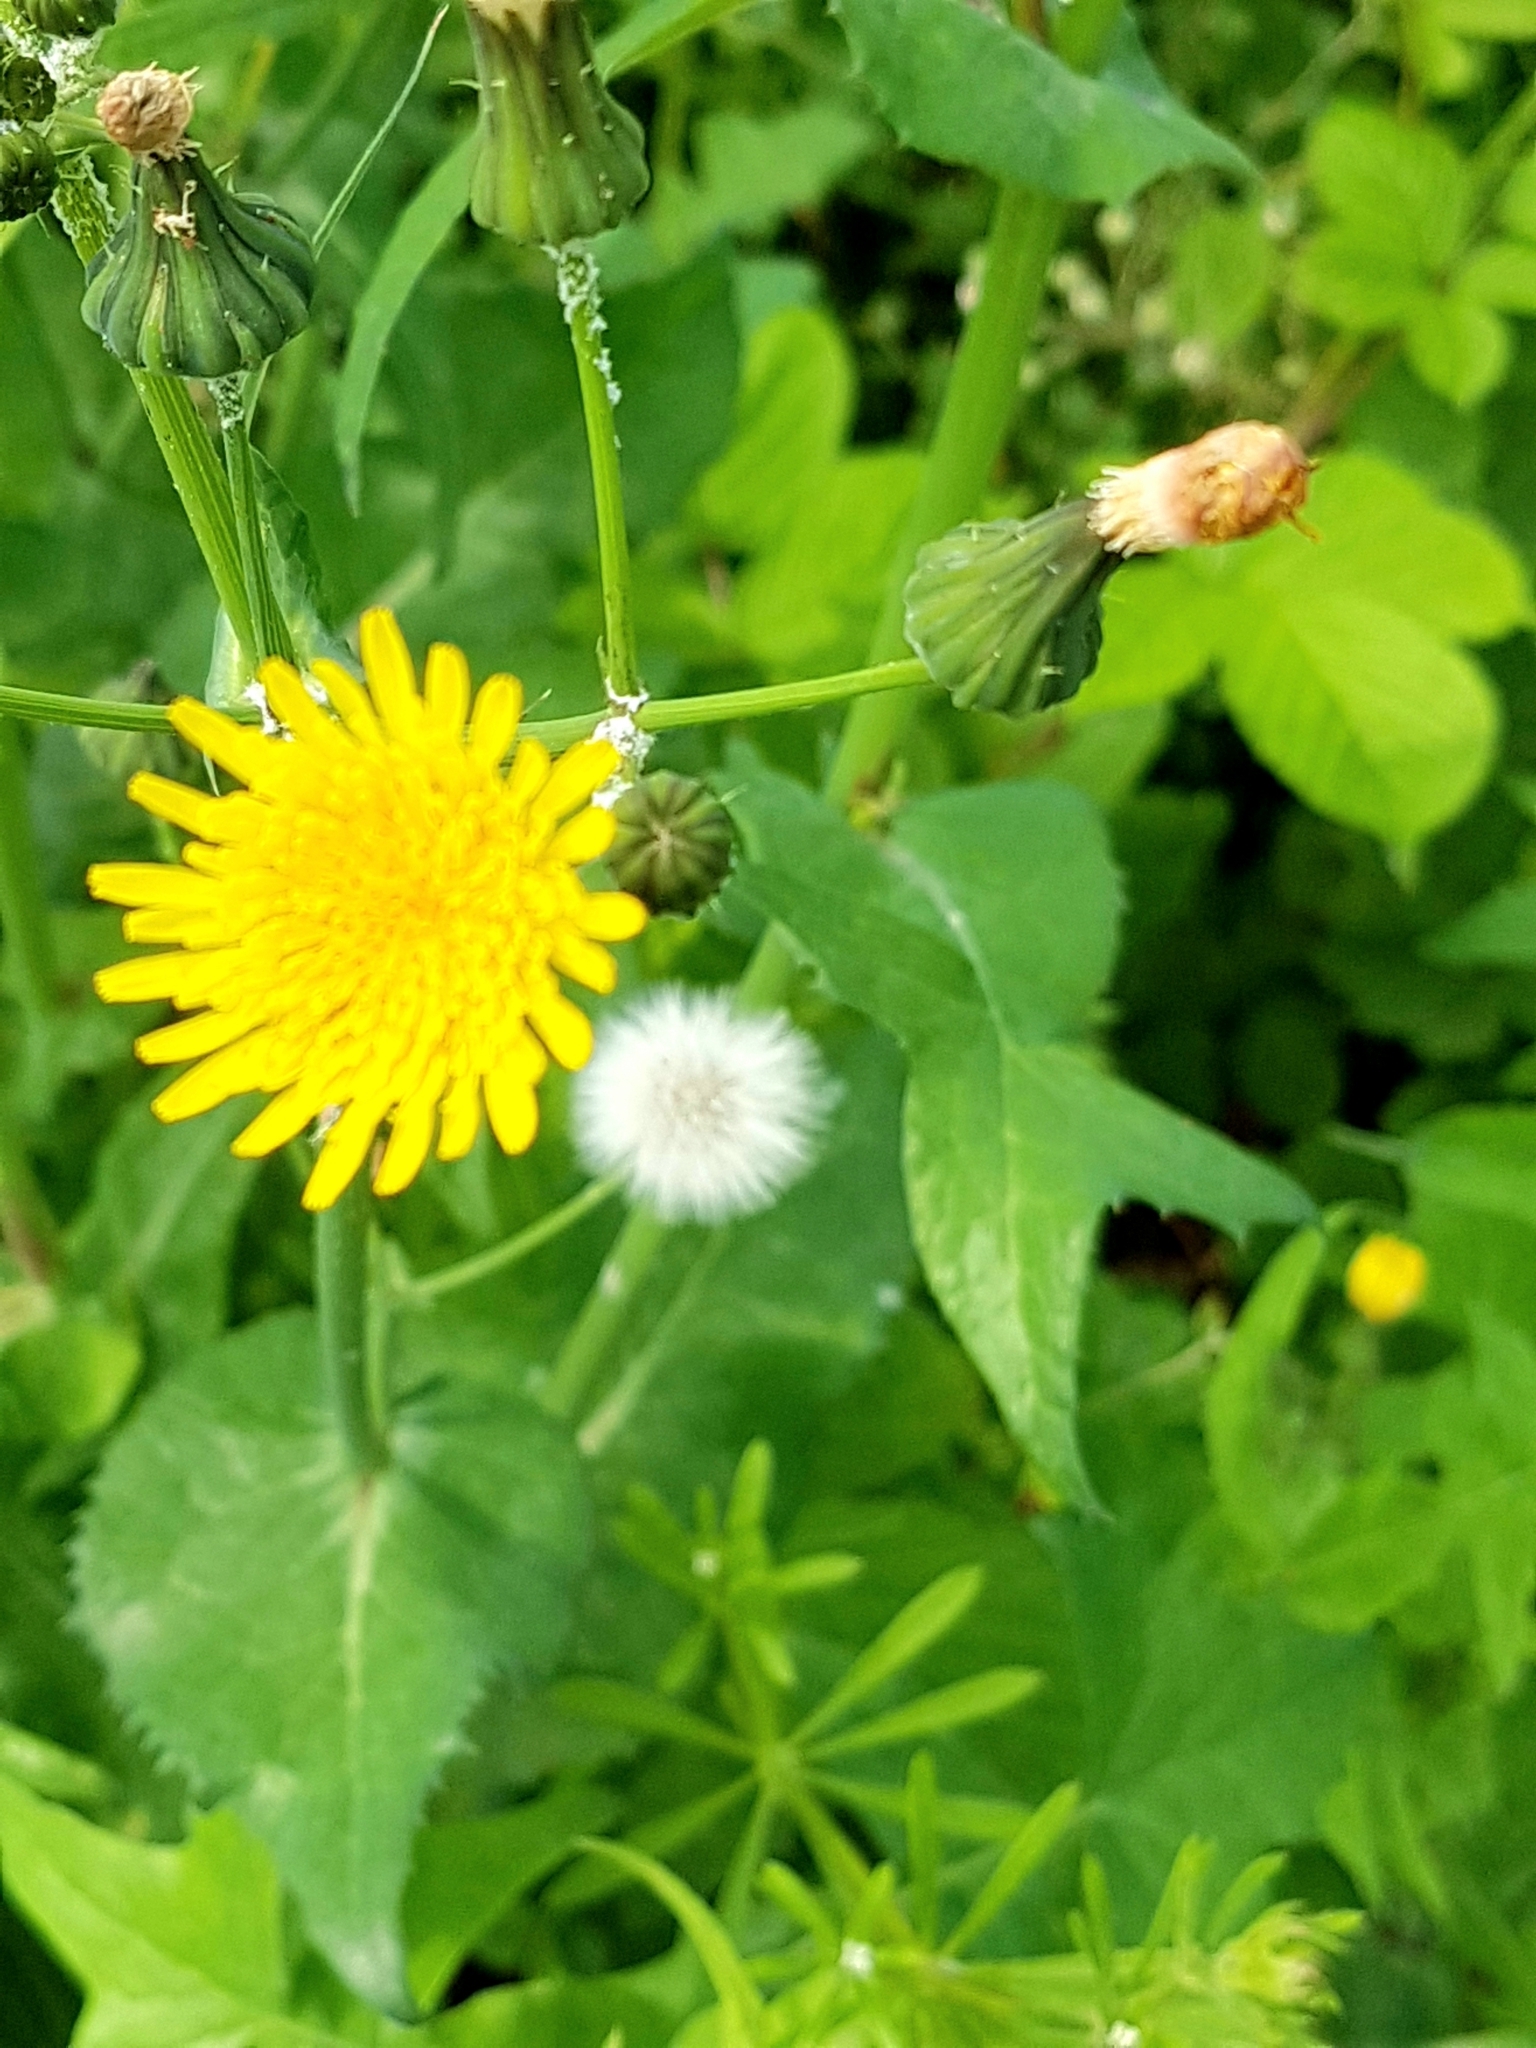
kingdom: Plantae
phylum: Tracheophyta
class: Magnoliopsida
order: Asterales
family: Asteraceae
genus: Sonchus
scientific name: Sonchus oleraceus
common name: Common sowthistle
